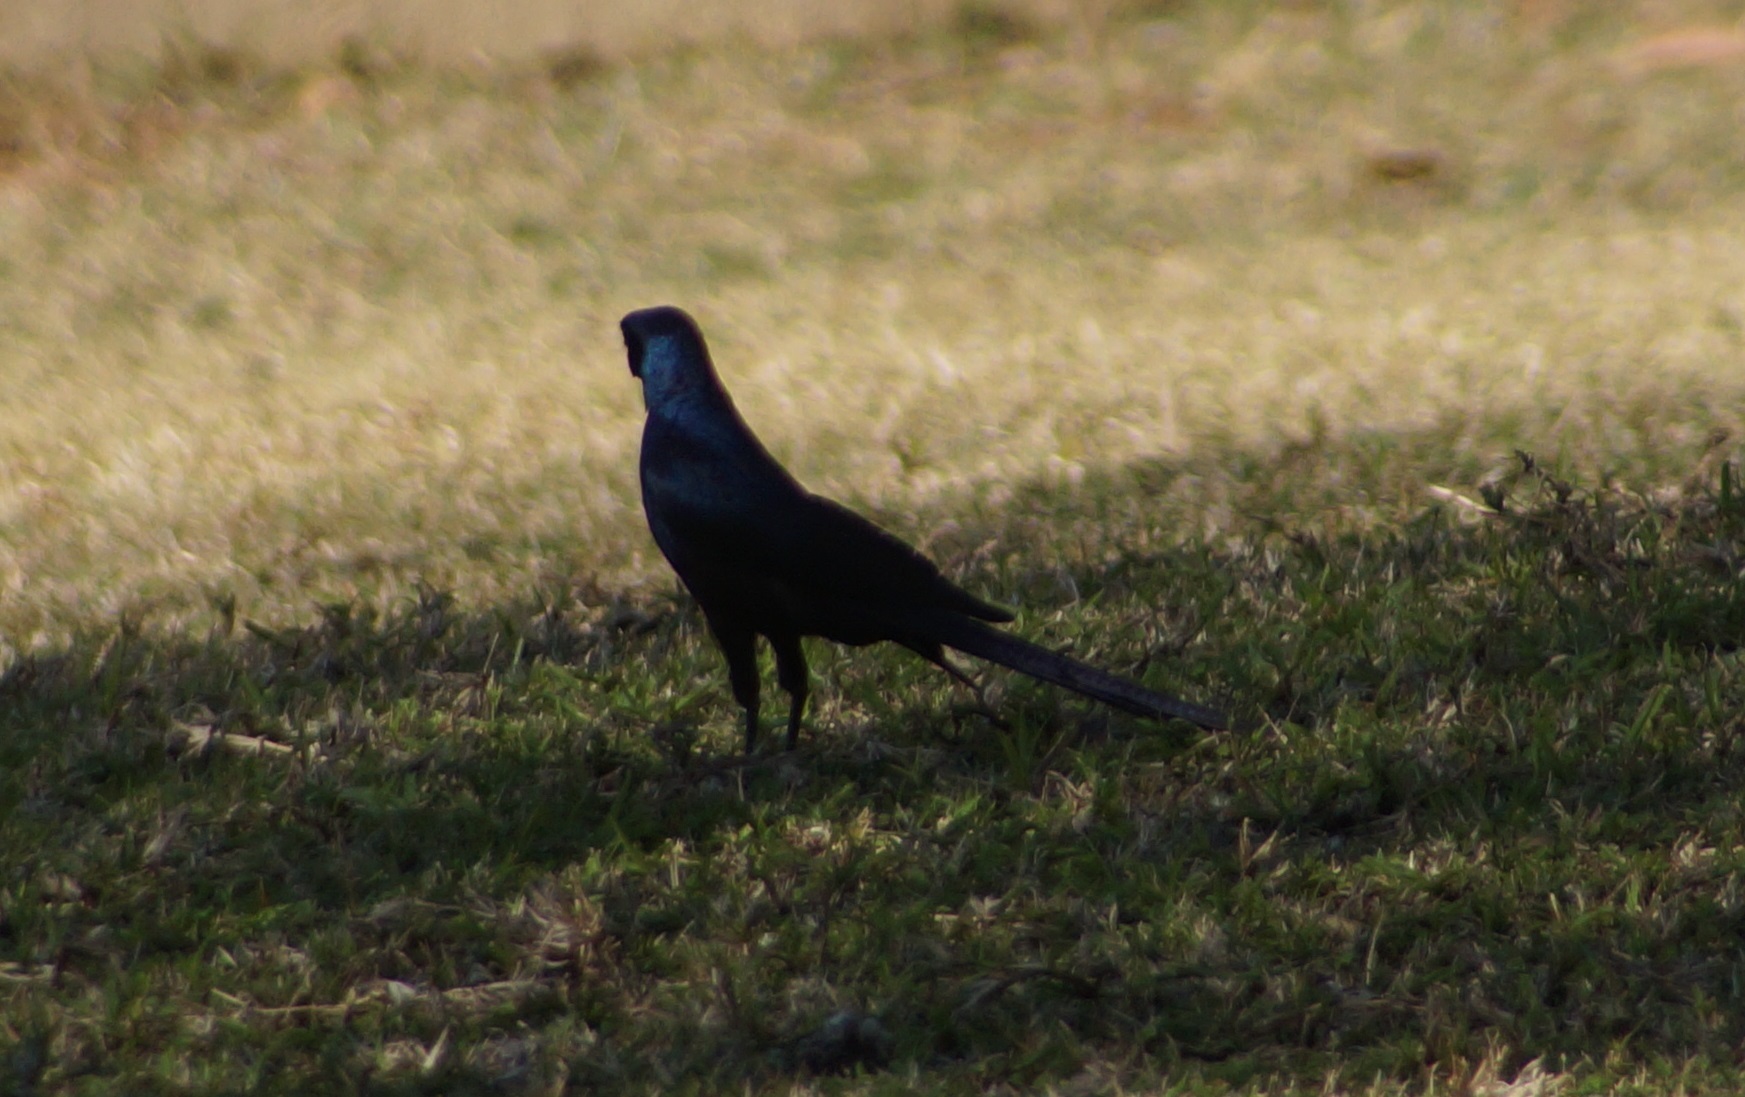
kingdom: Animalia
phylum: Chordata
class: Aves
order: Passeriformes
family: Sturnidae
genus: Lamprotornis
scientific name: Lamprotornis mevesii
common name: Meves's starling
